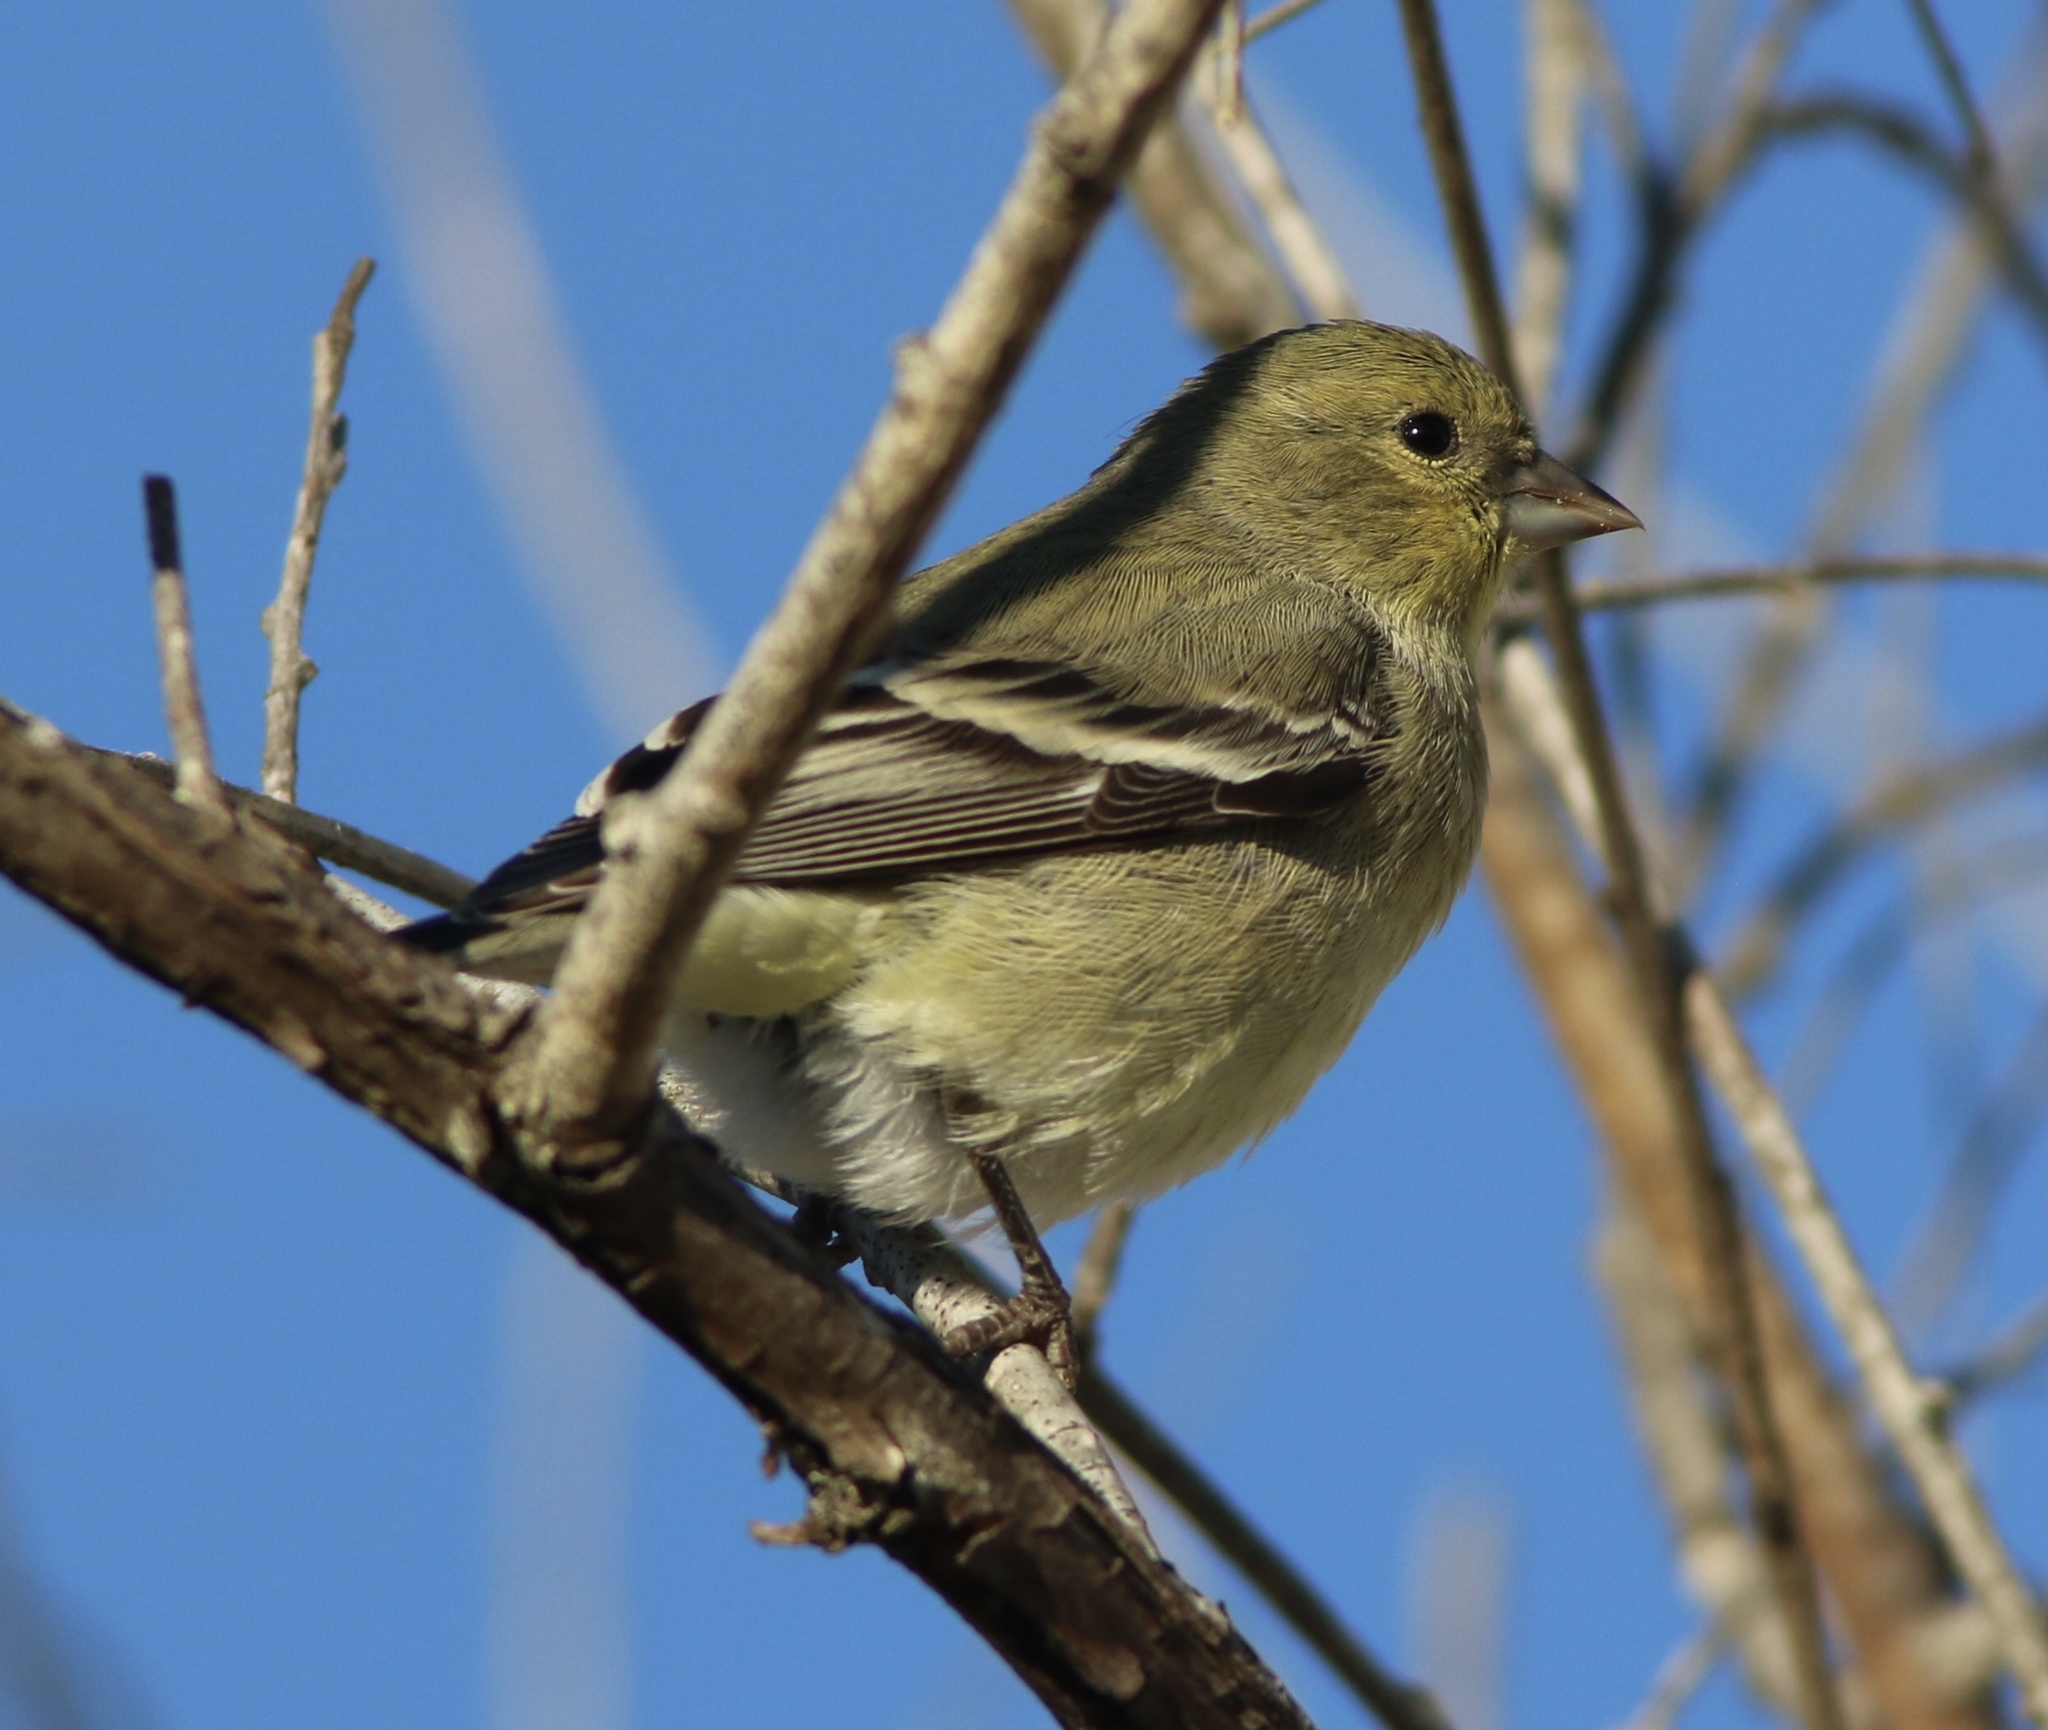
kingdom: Animalia
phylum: Chordata
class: Aves
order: Passeriformes
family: Fringillidae
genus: Spinus
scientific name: Spinus psaltria
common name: Lesser goldfinch
